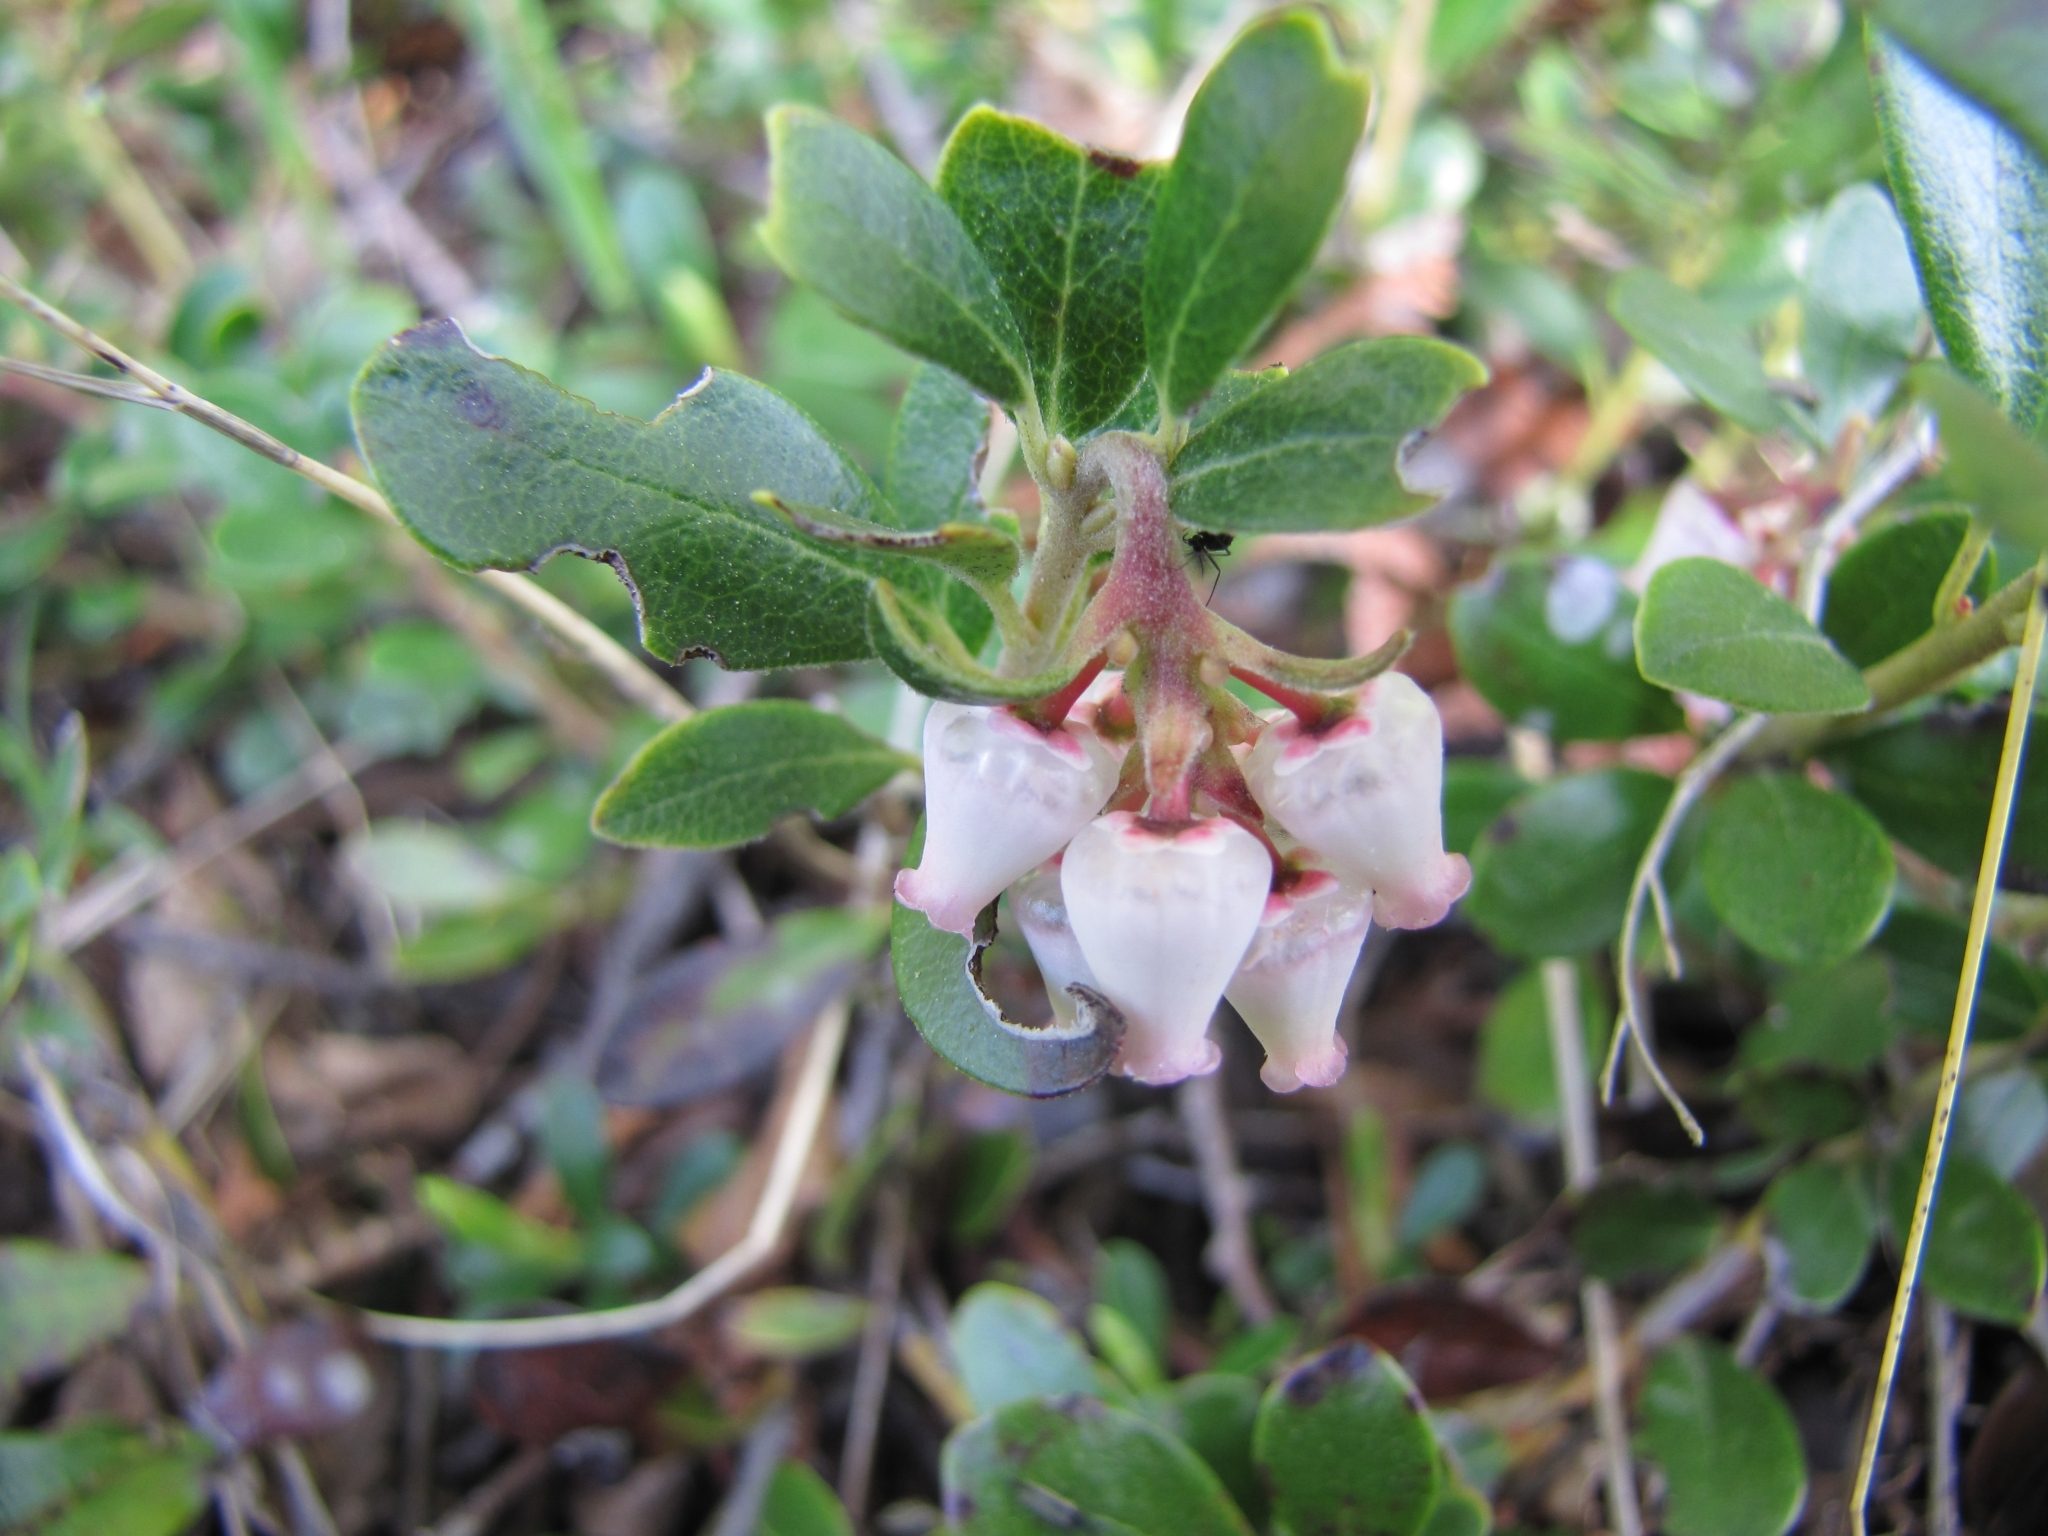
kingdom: Plantae
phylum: Tracheophyta
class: Magnoliopsida
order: Ericales
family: Ericaceae
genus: Arctostaphylos
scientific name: Arctostaphylos uva-ursi
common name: Bearberry
